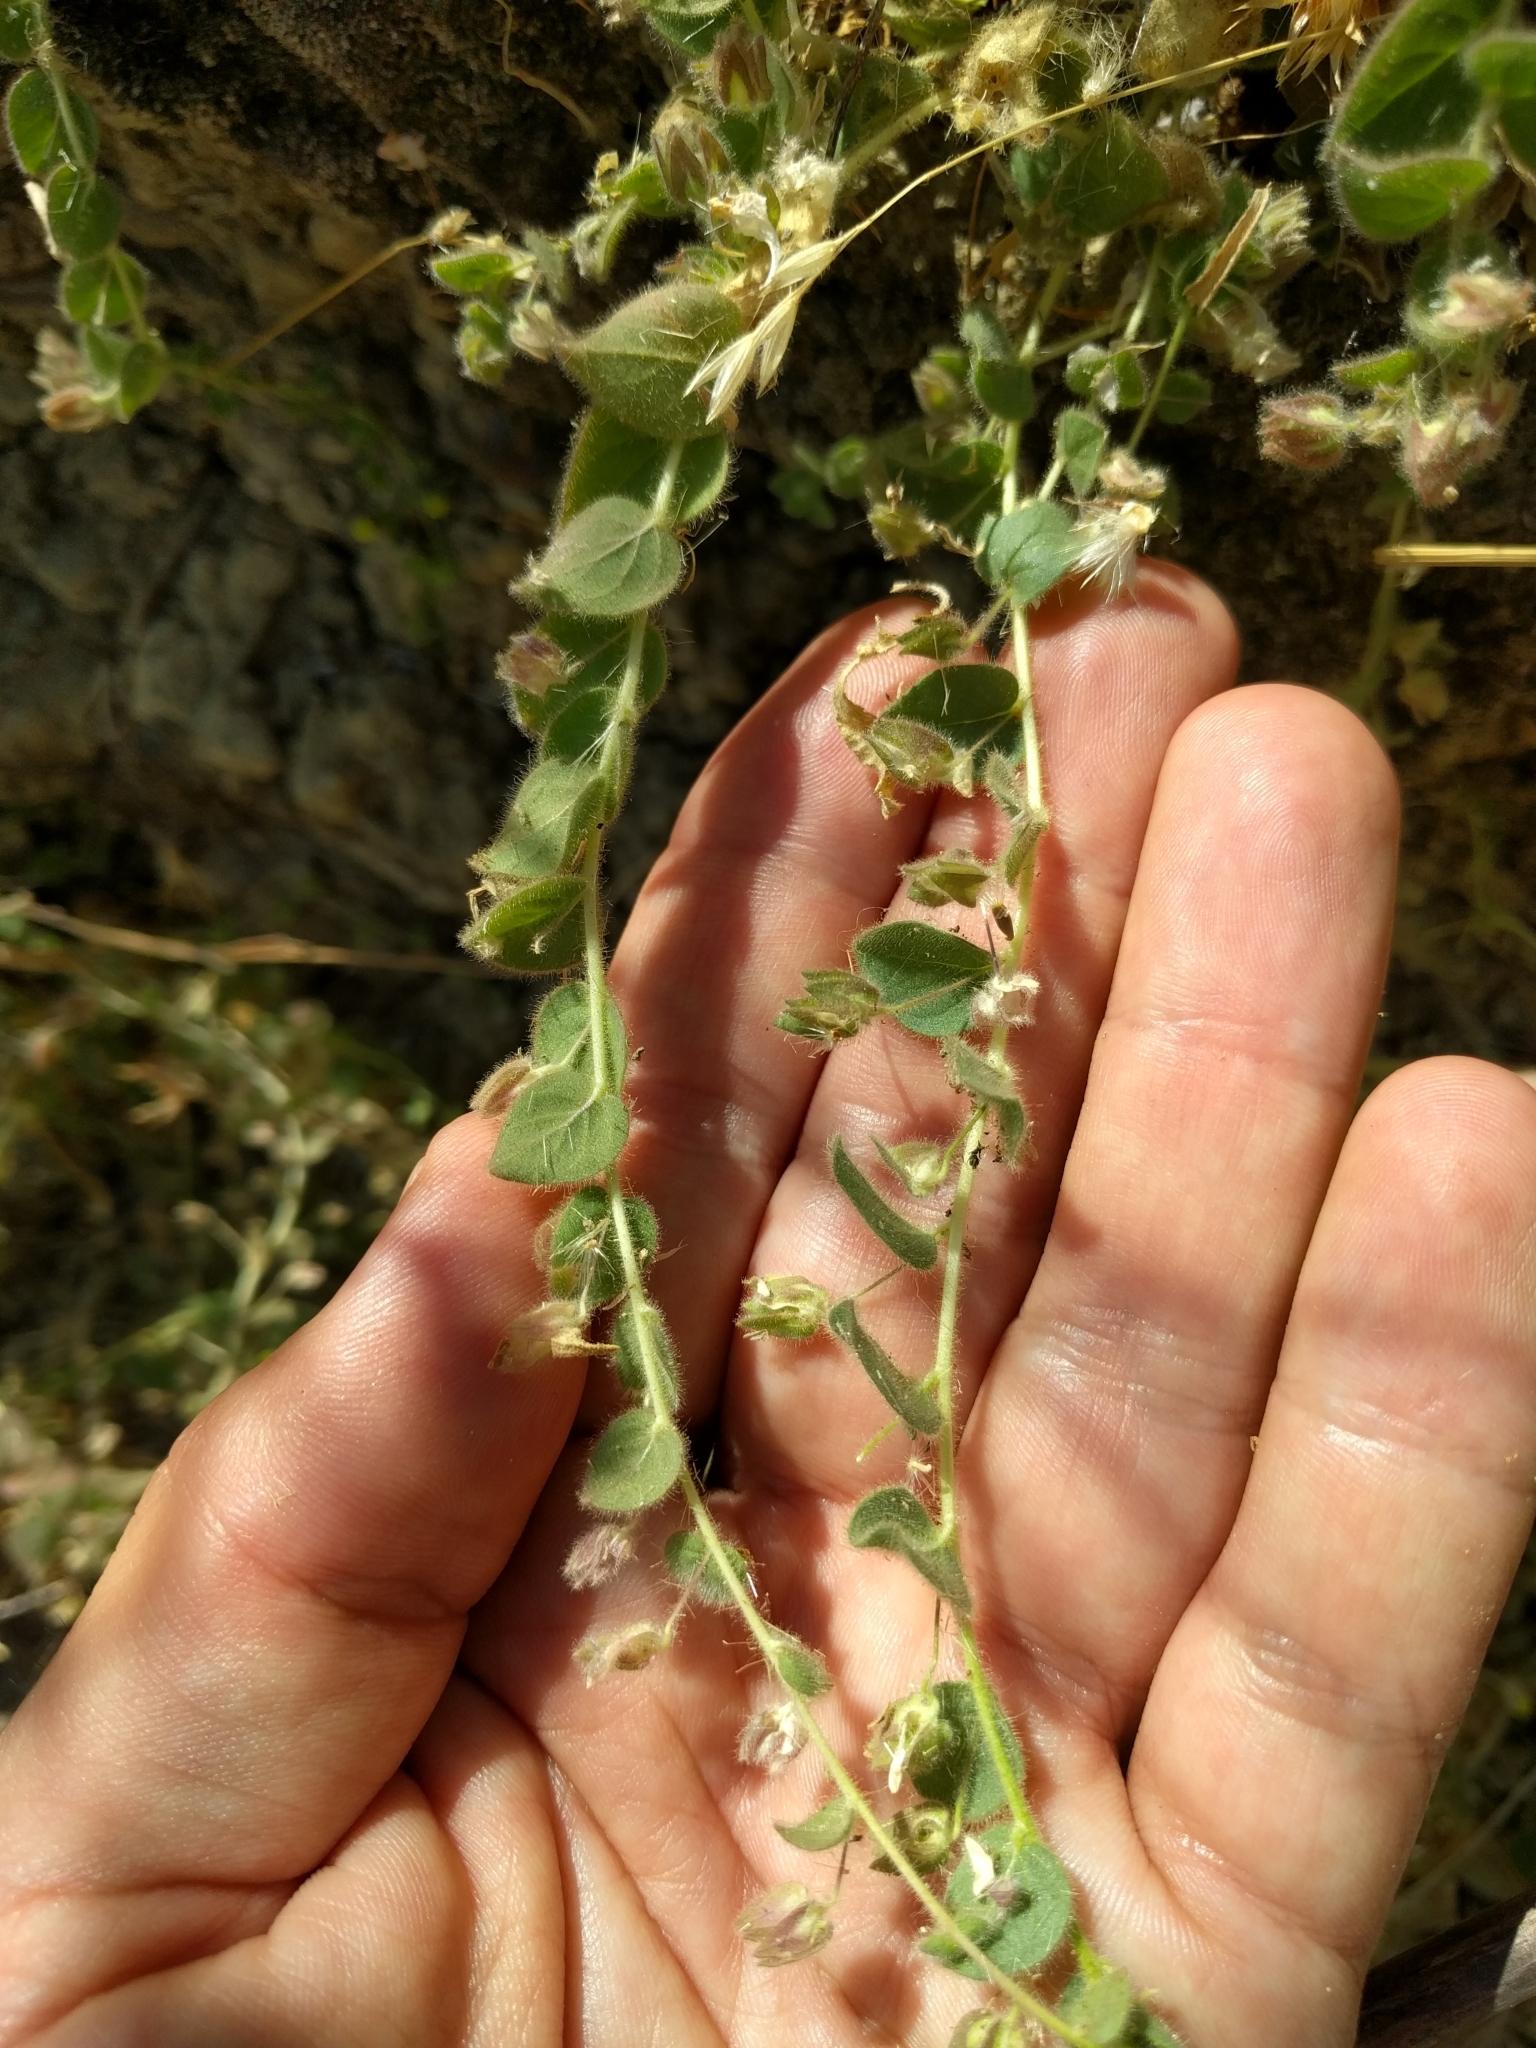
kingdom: Plantae
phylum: Tracheophyta
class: Magnoliopsida
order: Lamiales
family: Plantaginaceae
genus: Kickxia
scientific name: Kickxia spuria
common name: Round-leaved fluellen
